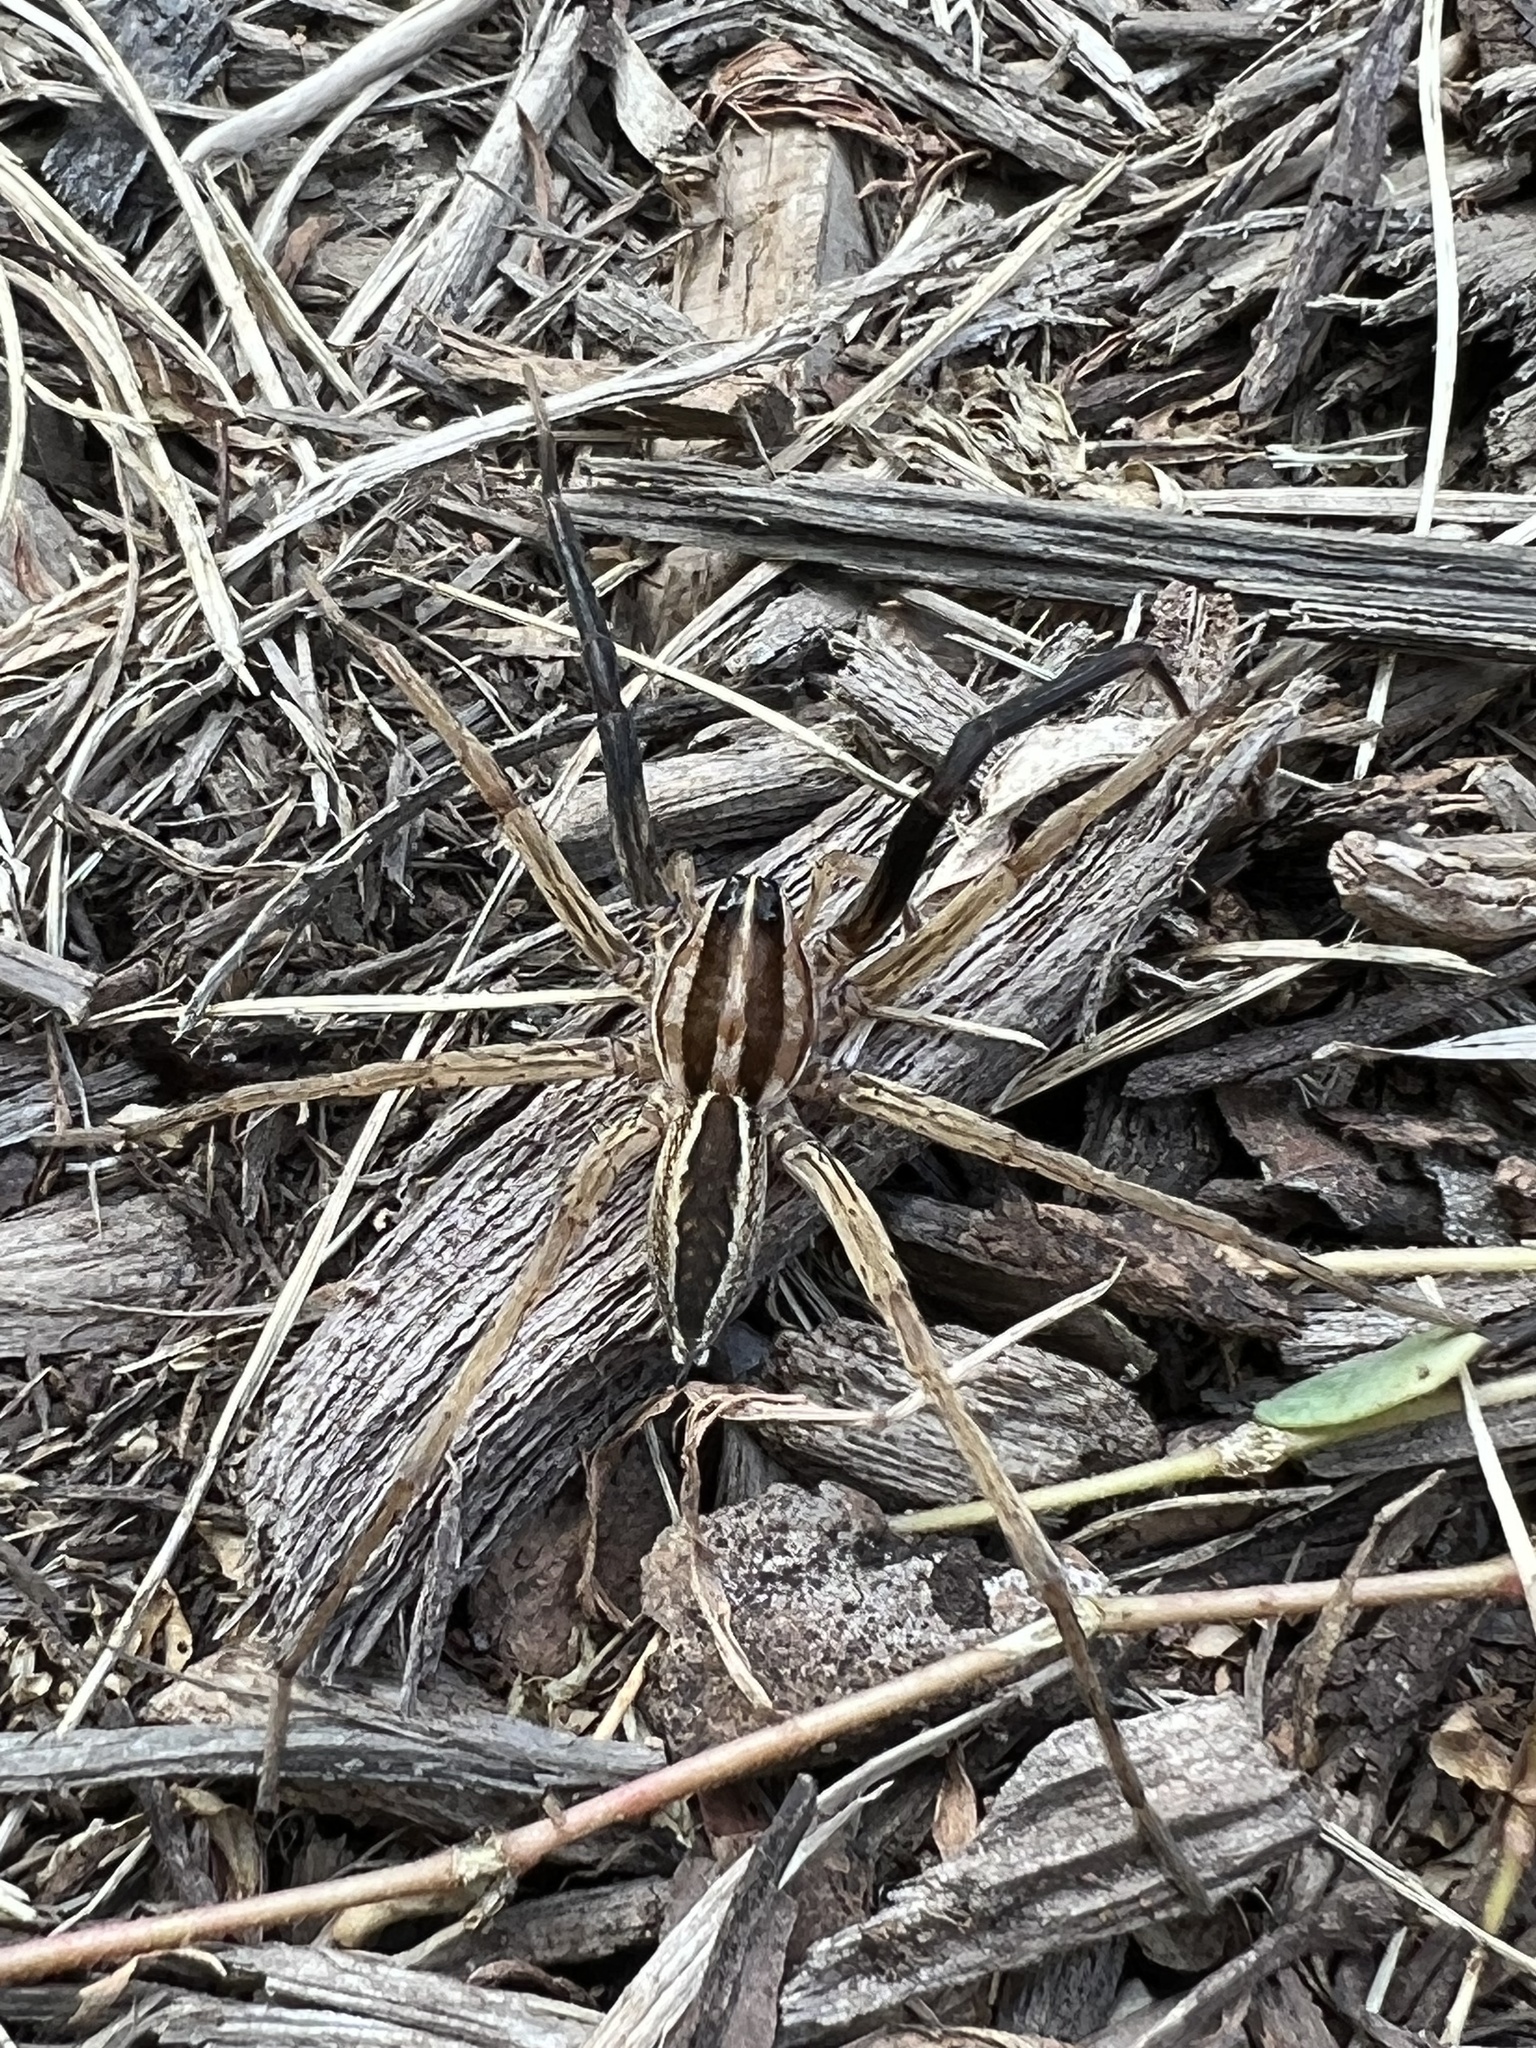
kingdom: Animalia
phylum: Arthropoda
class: Arachnida
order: Araneae
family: Lycosidae
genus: Rabidosa
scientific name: Rabidosa rabida
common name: Rabid wolf spider
